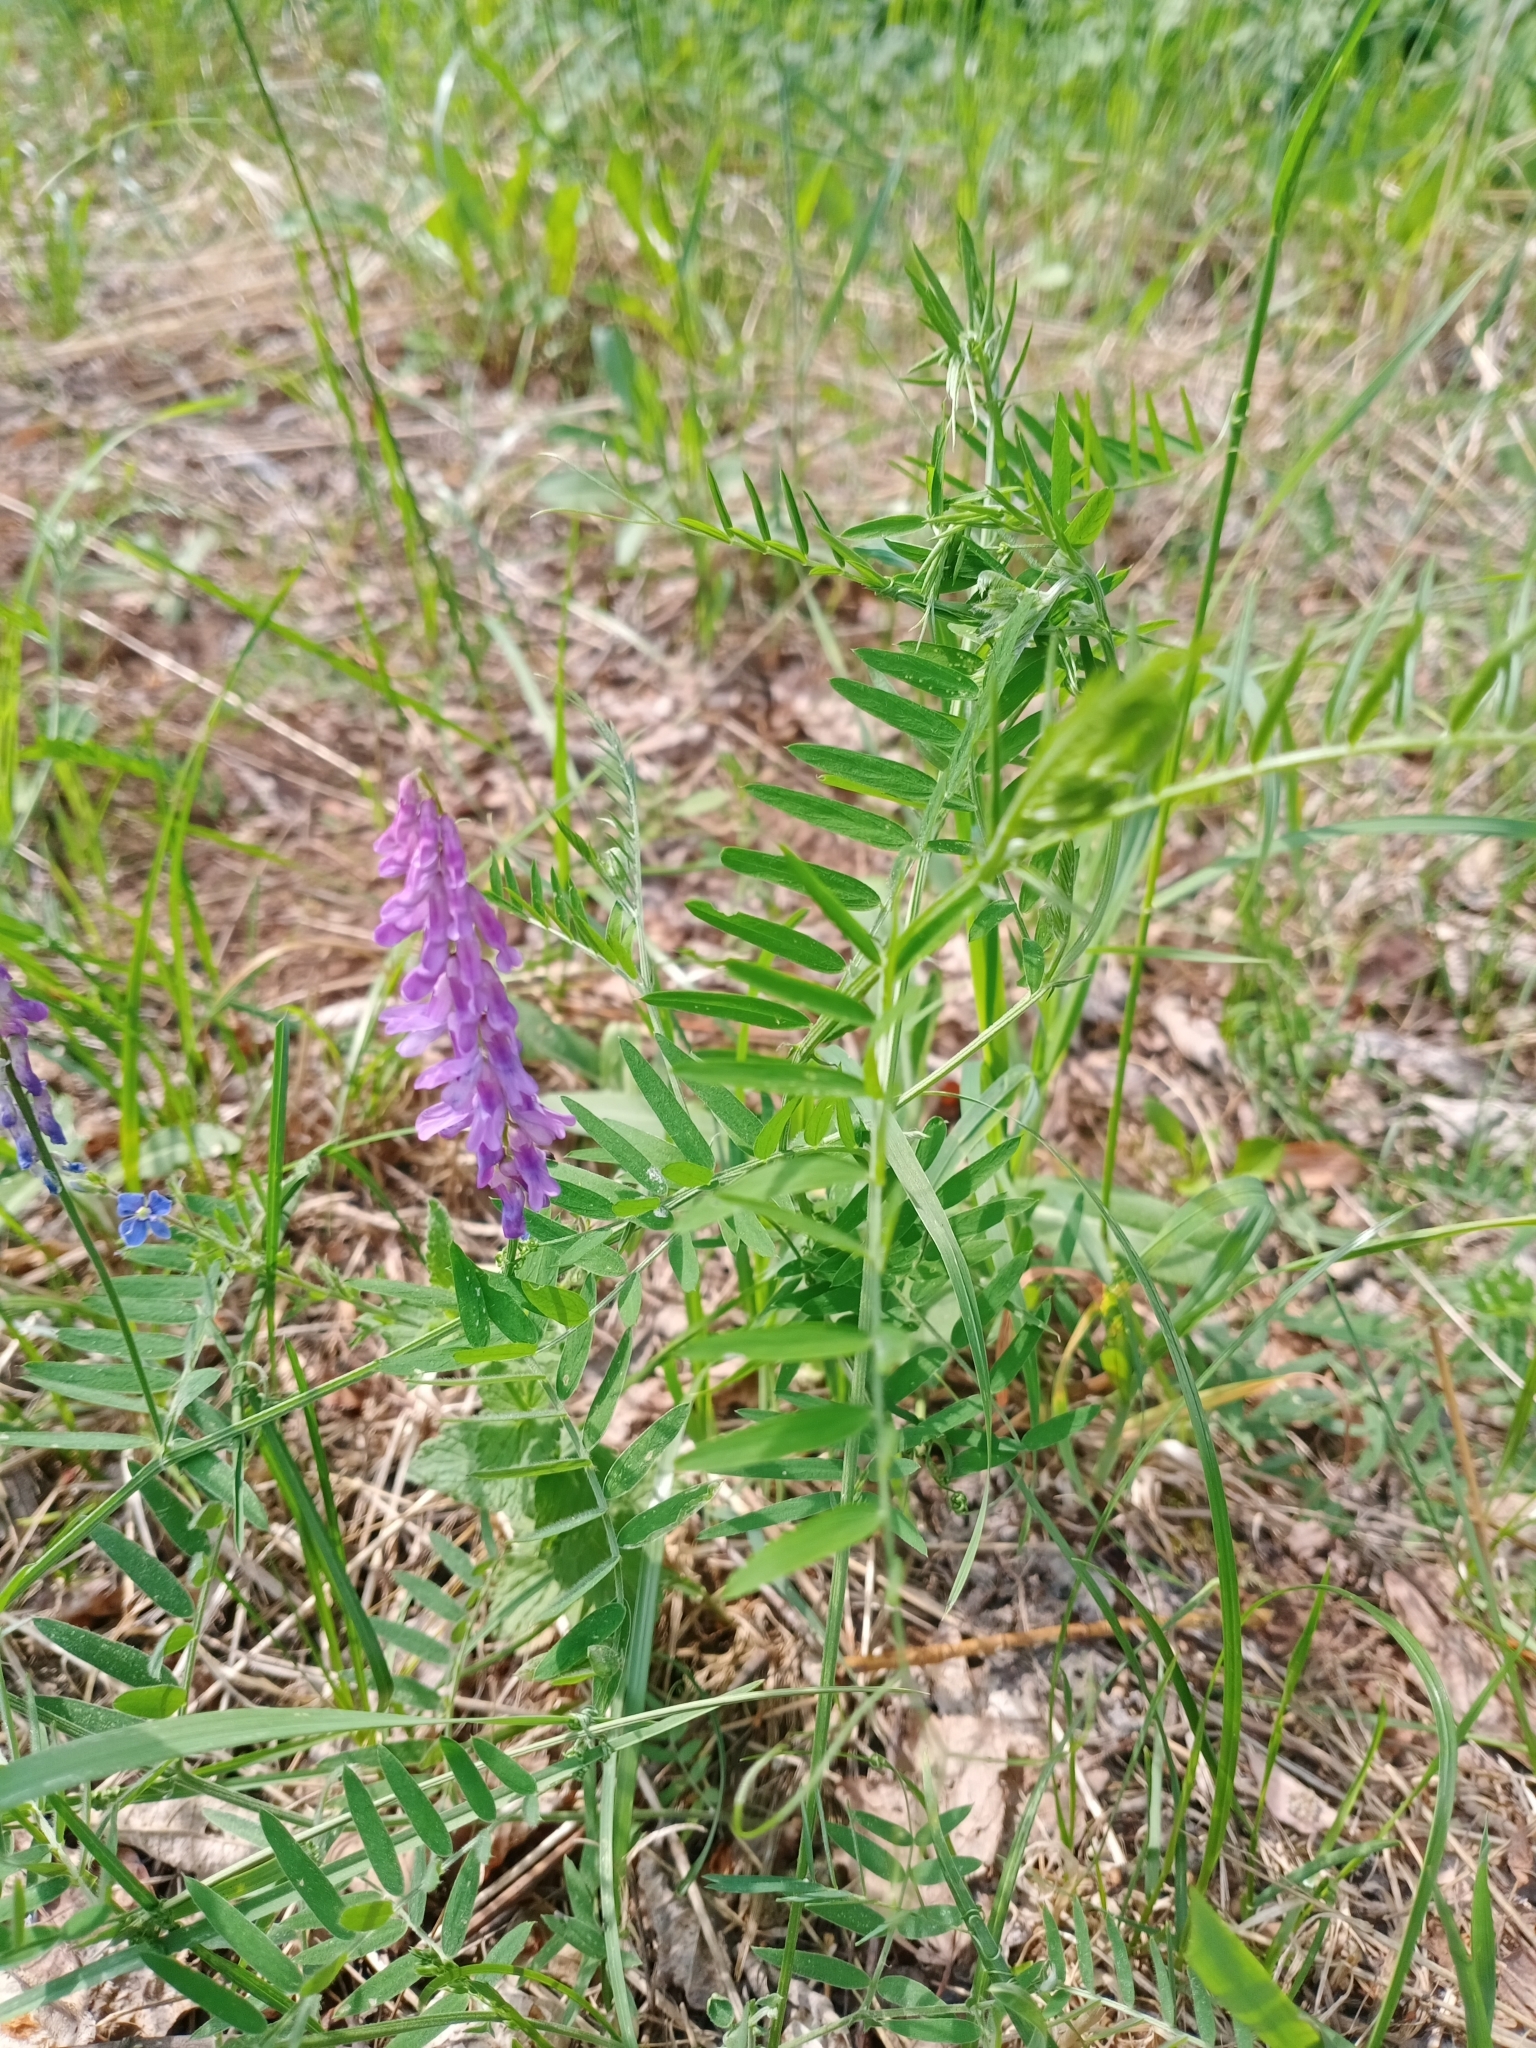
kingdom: Plantae
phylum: Tracheophyta
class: Magnoliopsida
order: Fabales
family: Fabaceae
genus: Vicia
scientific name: Vicia cracca
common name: Bird vetch
